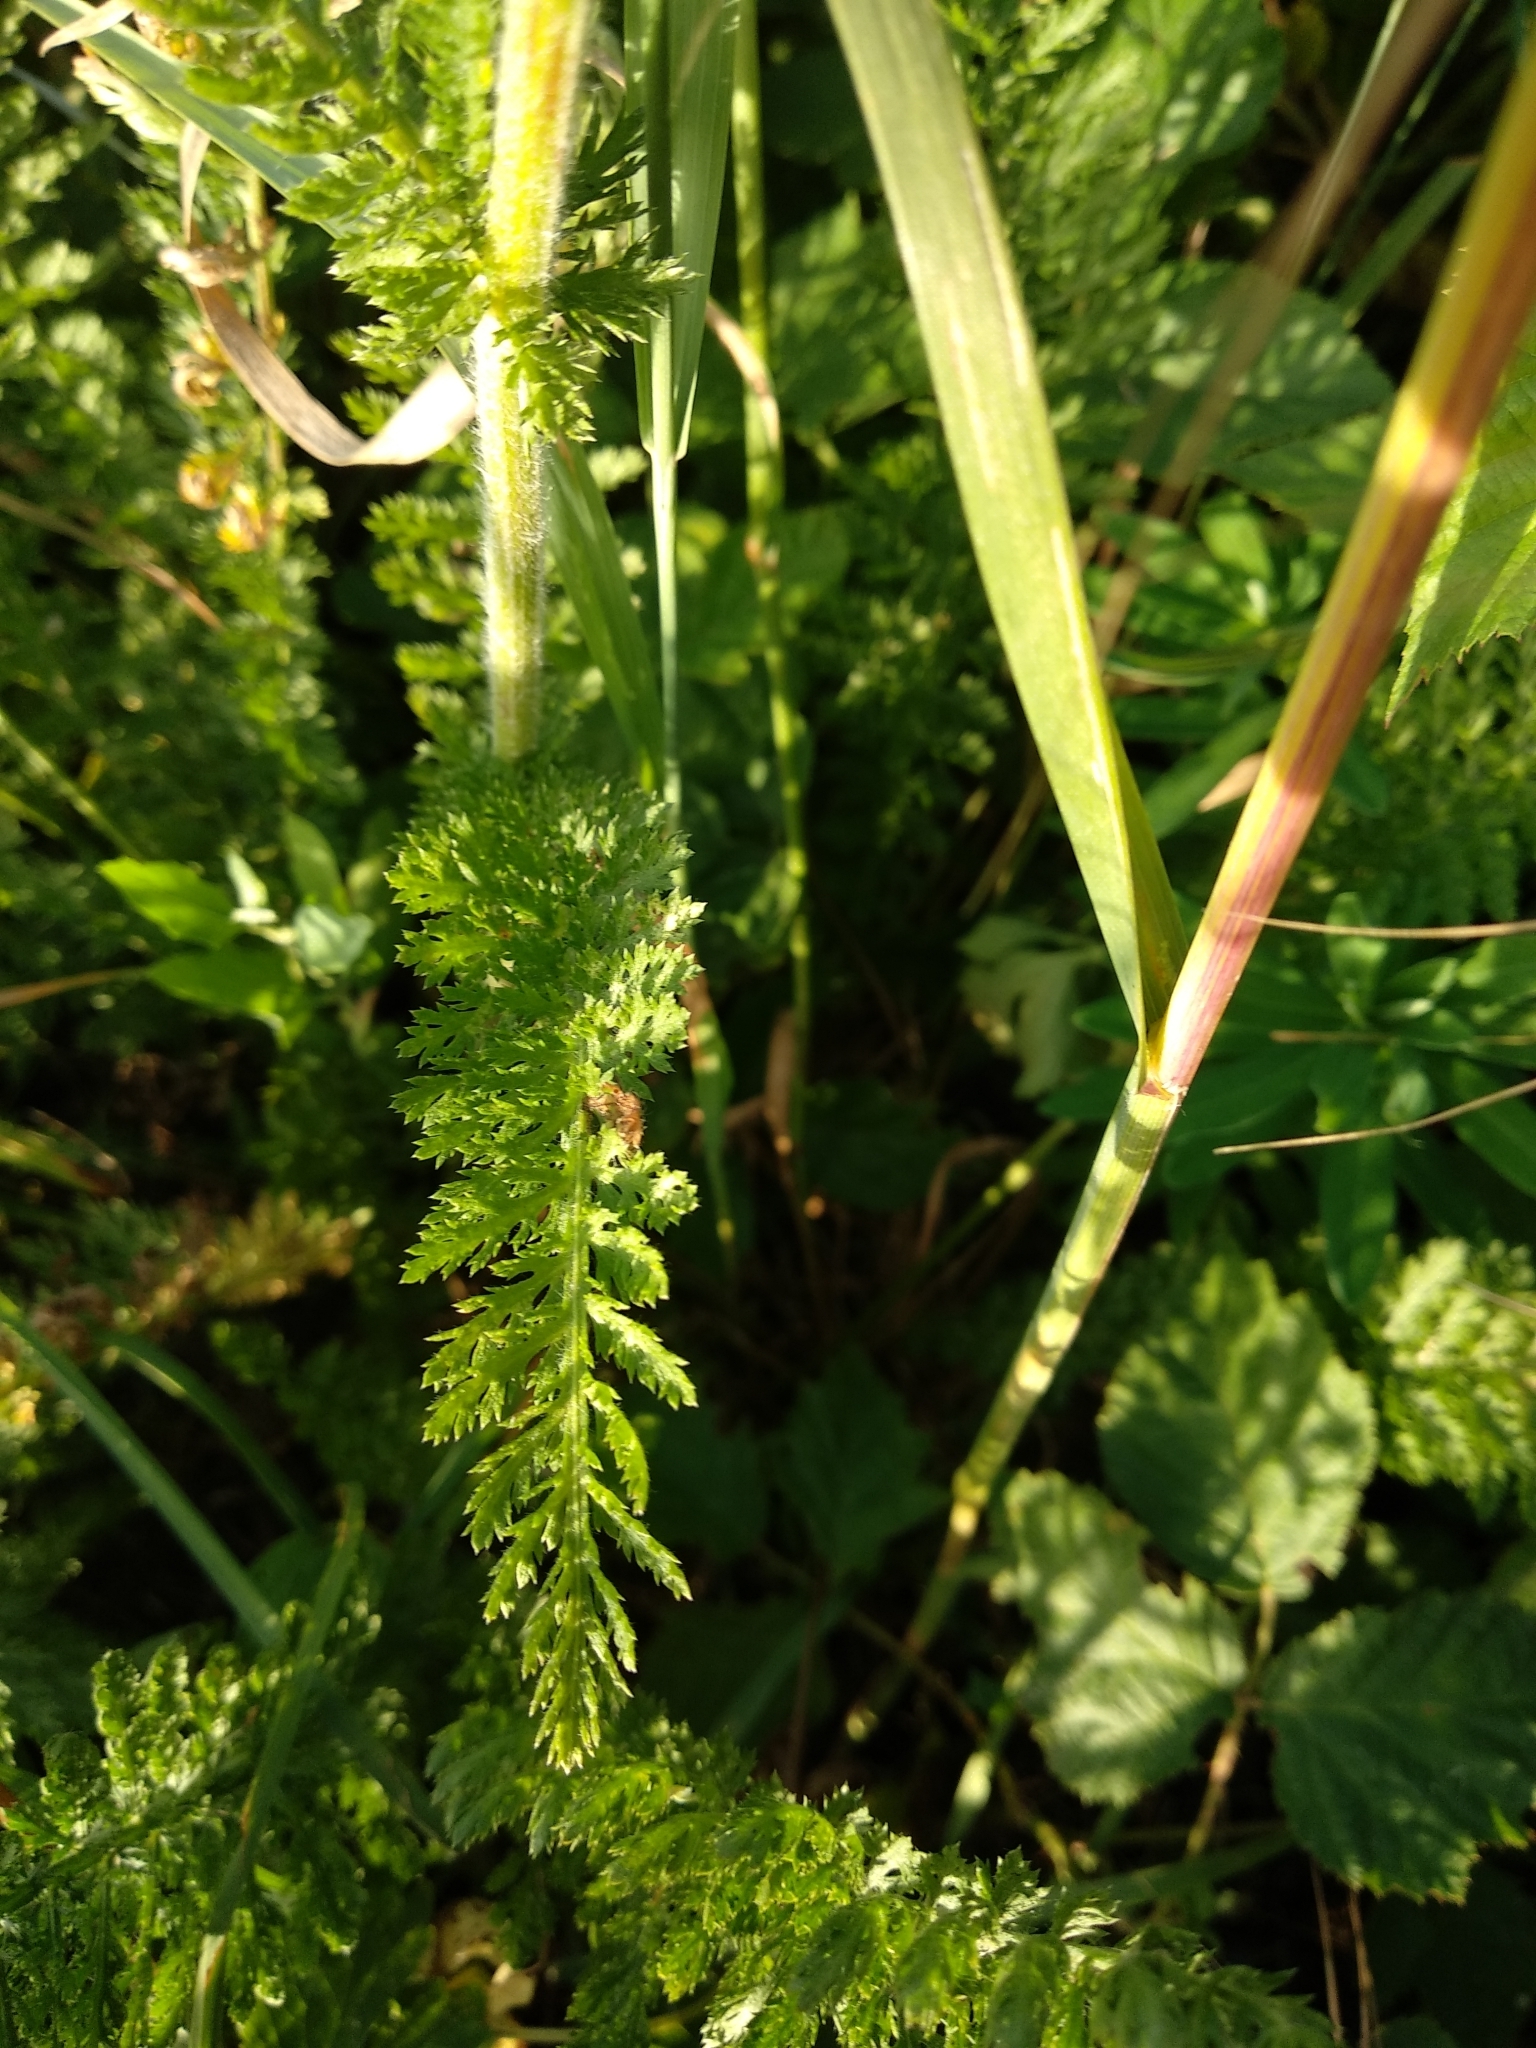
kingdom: Plantae
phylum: Tracheophyta
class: Magnoliopsida
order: Asterales
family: Asteraceae
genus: Achillea
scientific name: Achillea millefolium
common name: Yarrow
